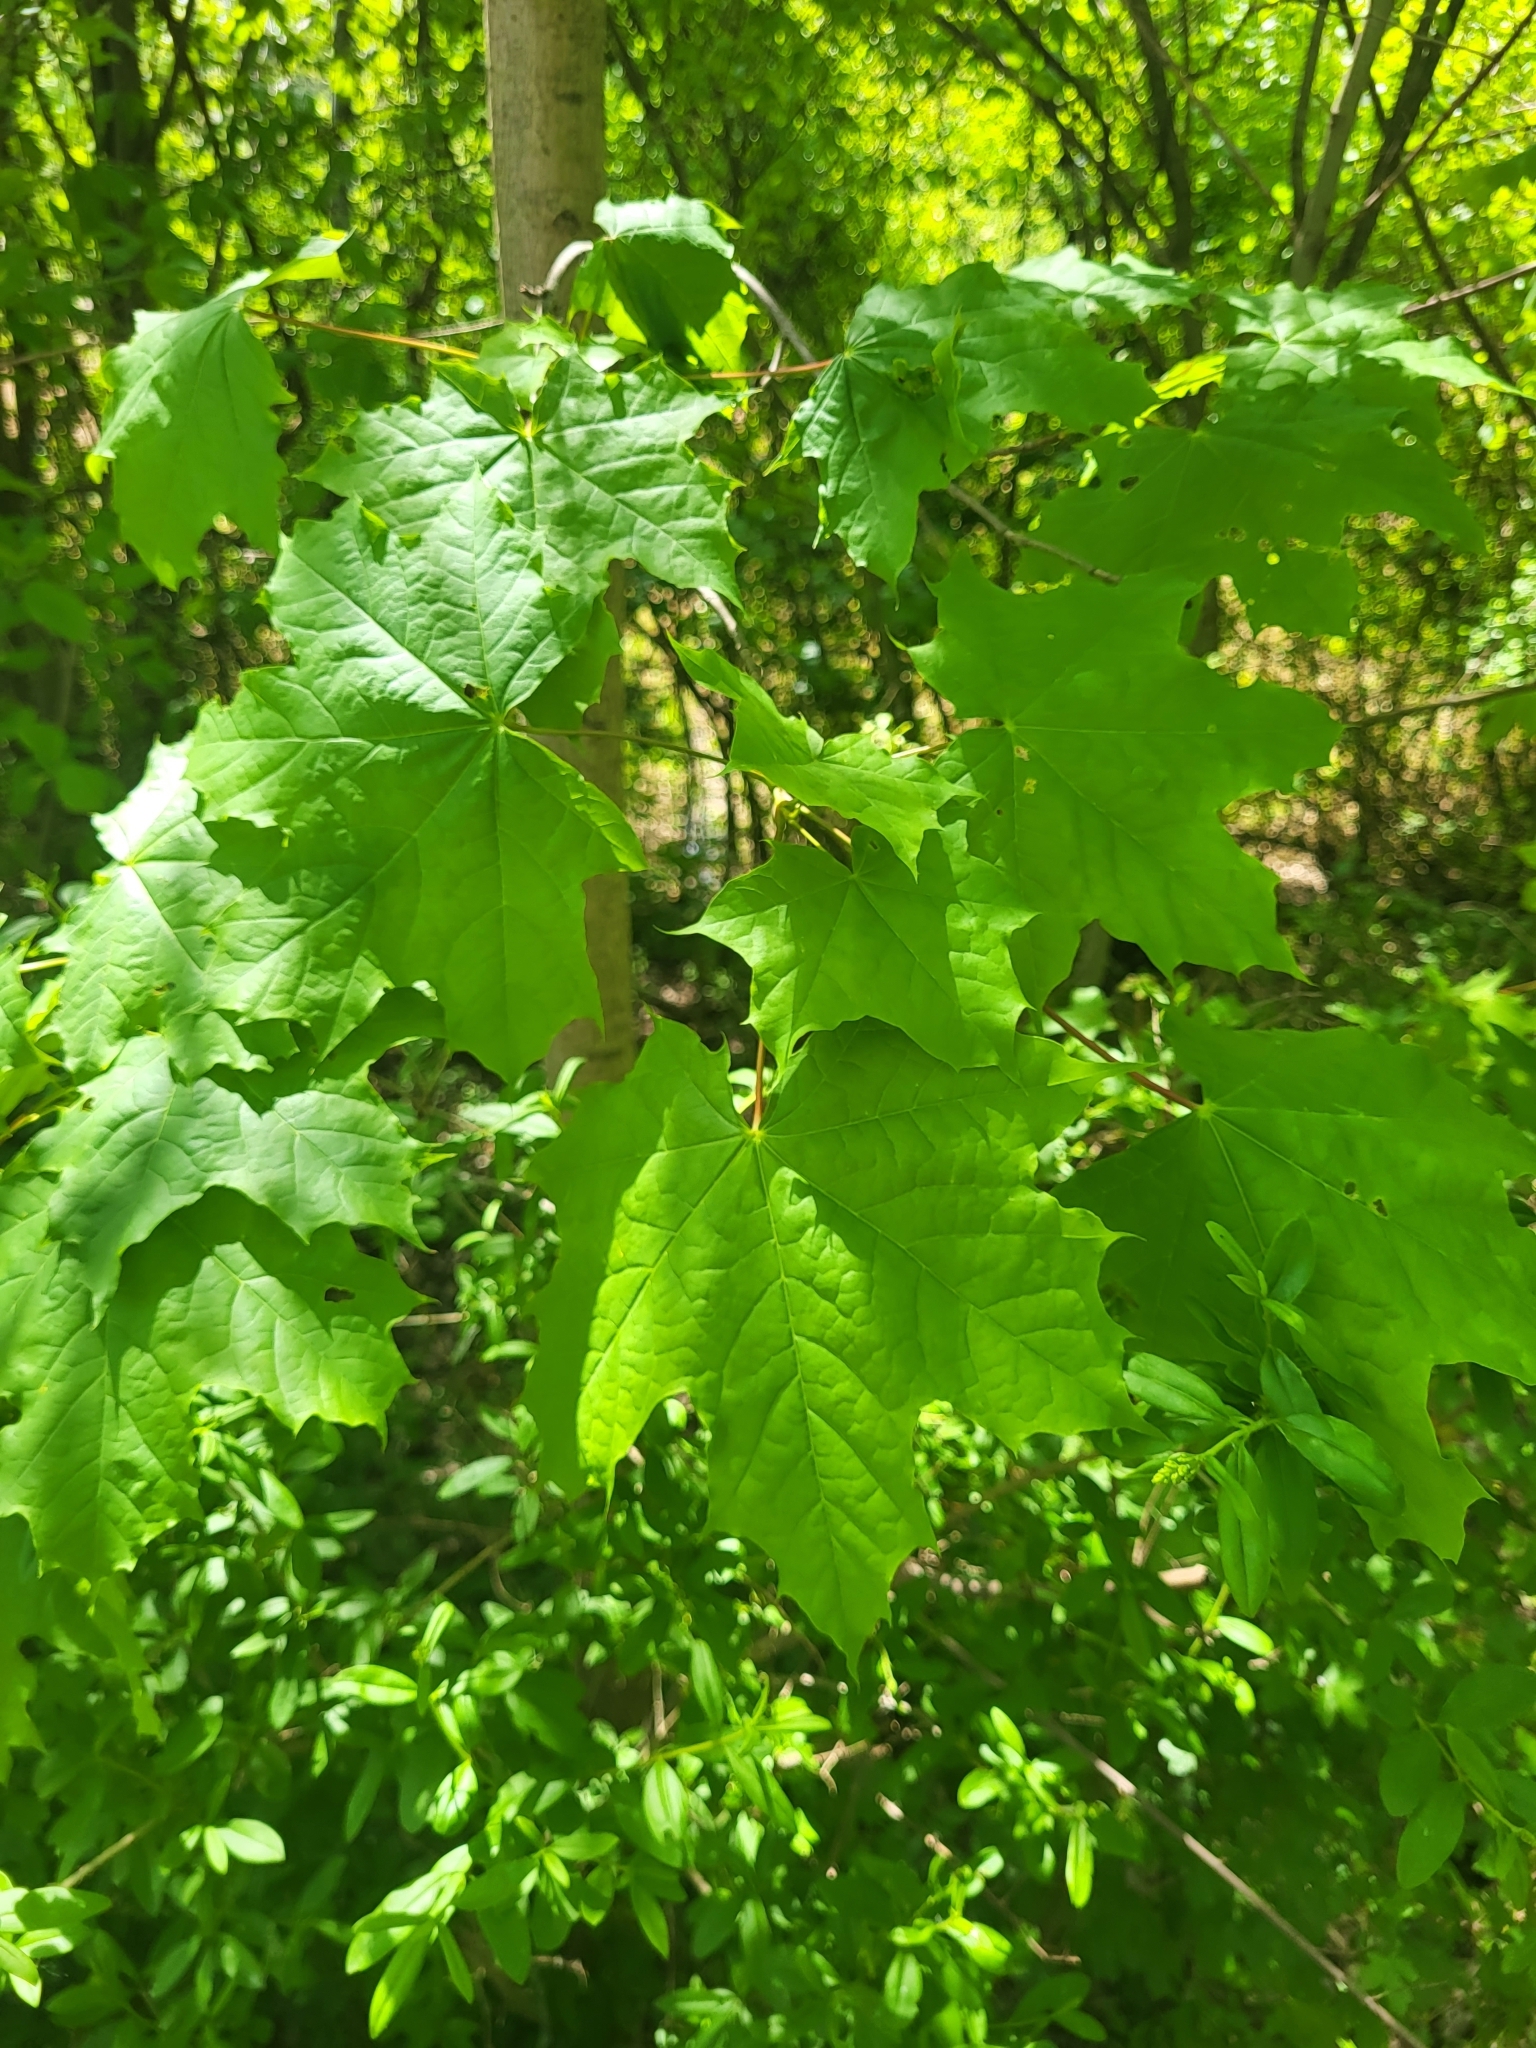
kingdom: Plantae
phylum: Tracheophyta
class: Magnoliopsida
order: Sapindales
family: Sapindaceae
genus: Acer
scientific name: Acer platanoides
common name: Norway maple
